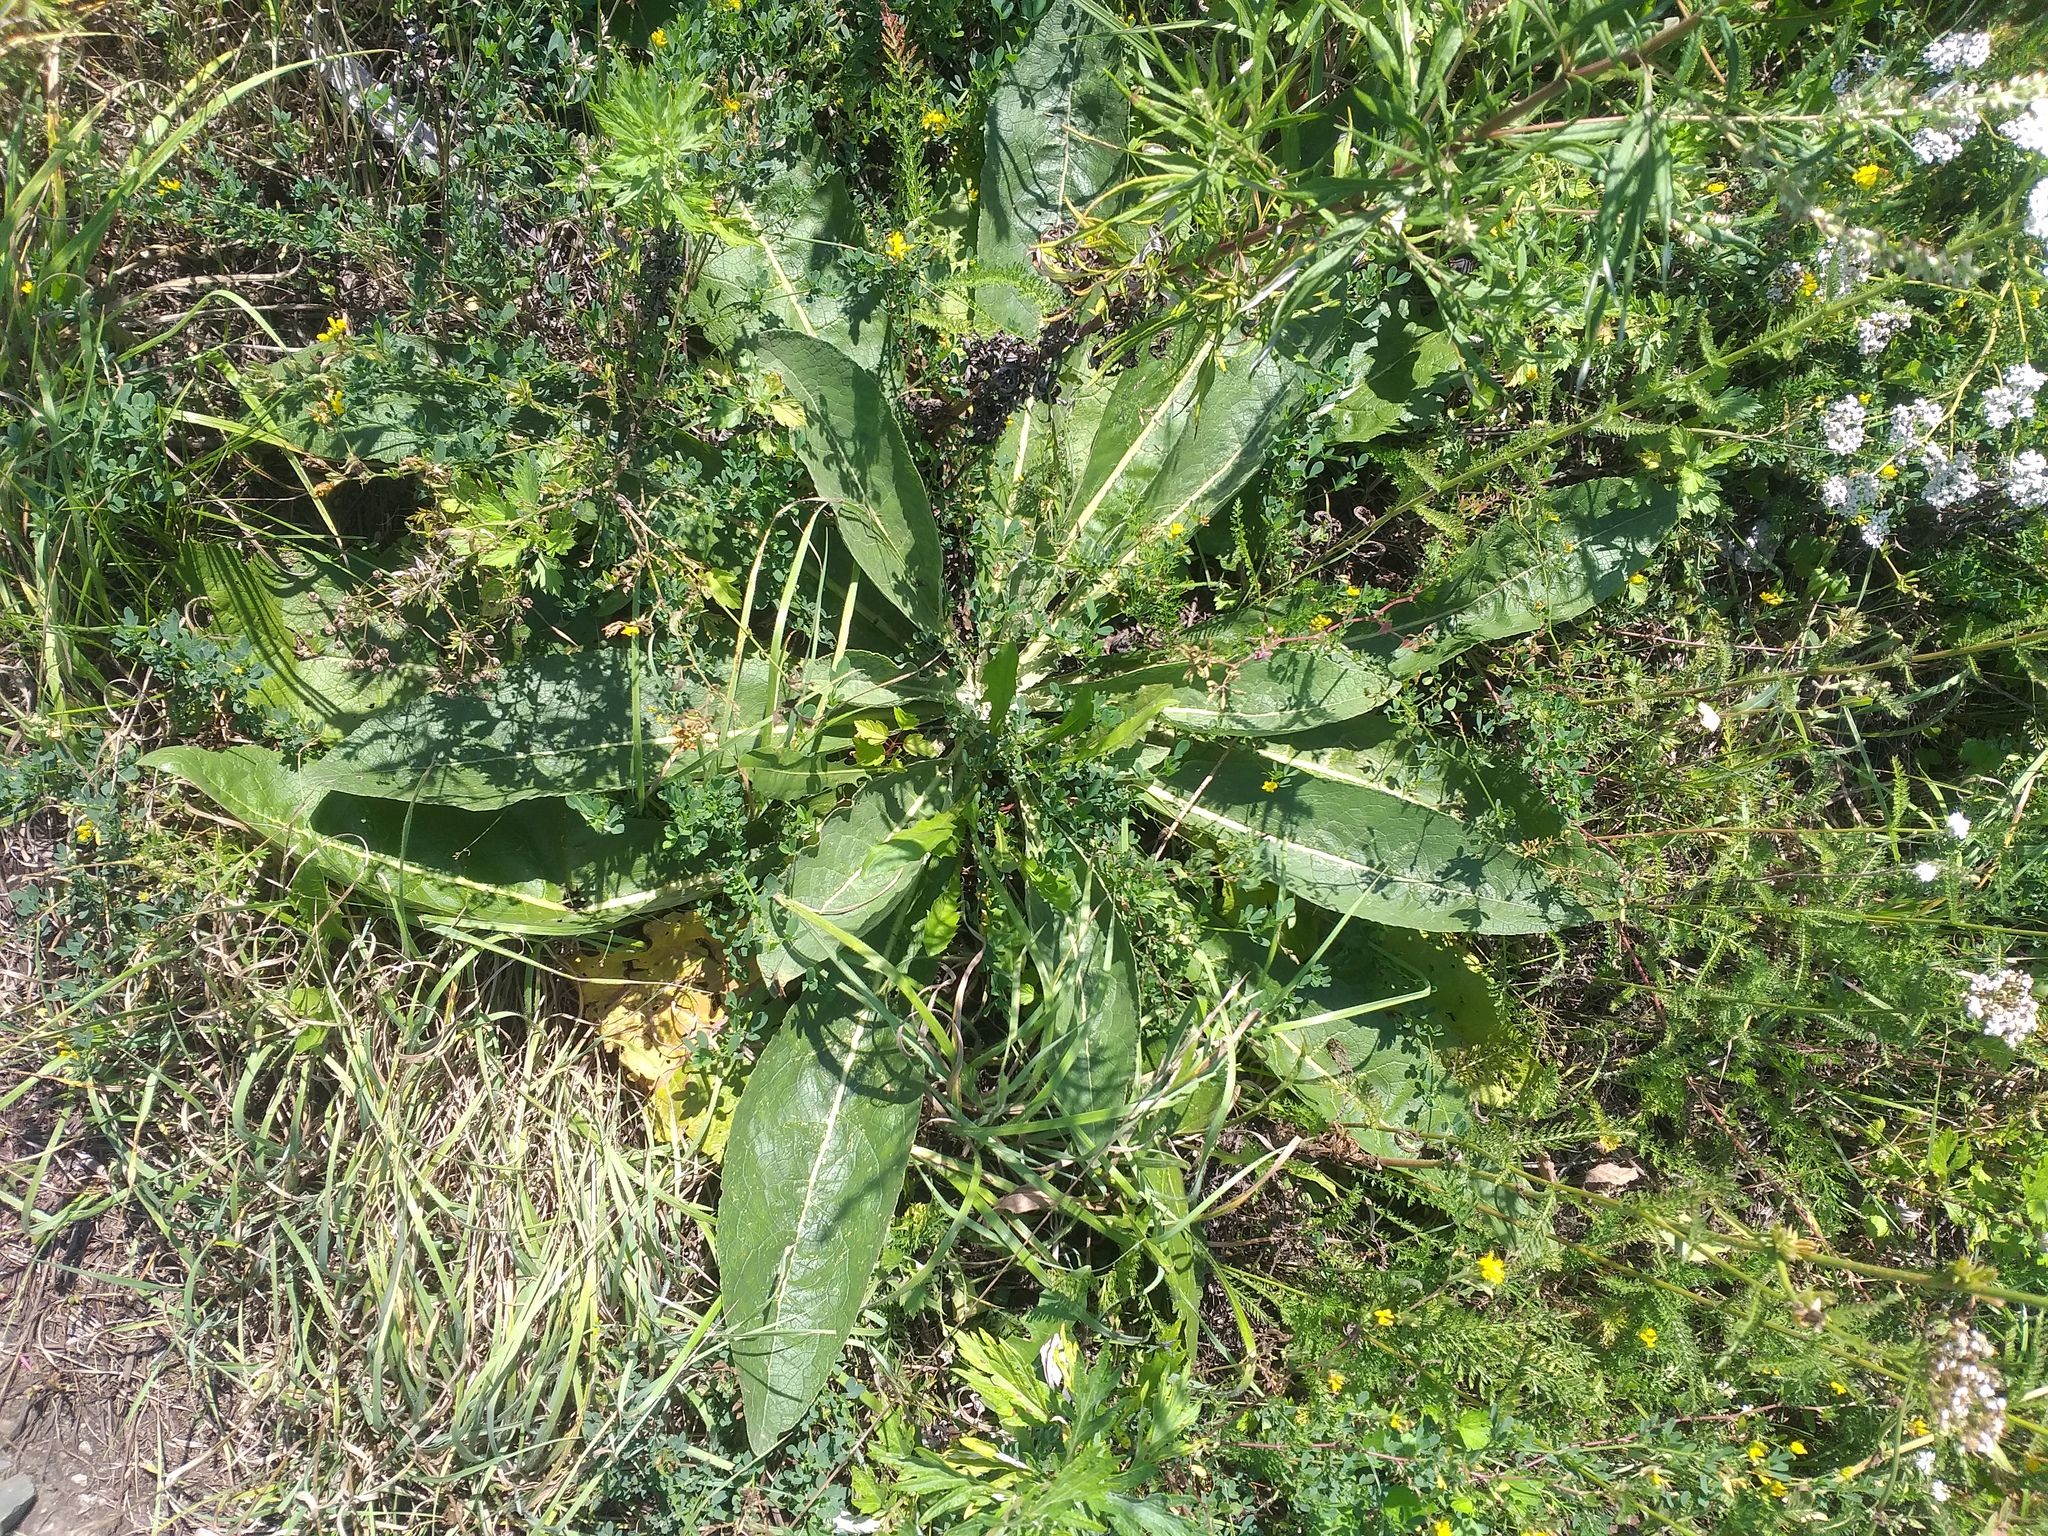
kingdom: Plantae
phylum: Tracheophyta
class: Magnoliopsida
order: Lamiales
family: Scrophulariaceae
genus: Verbascum
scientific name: Verbascum lychnitis
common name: White mullein
